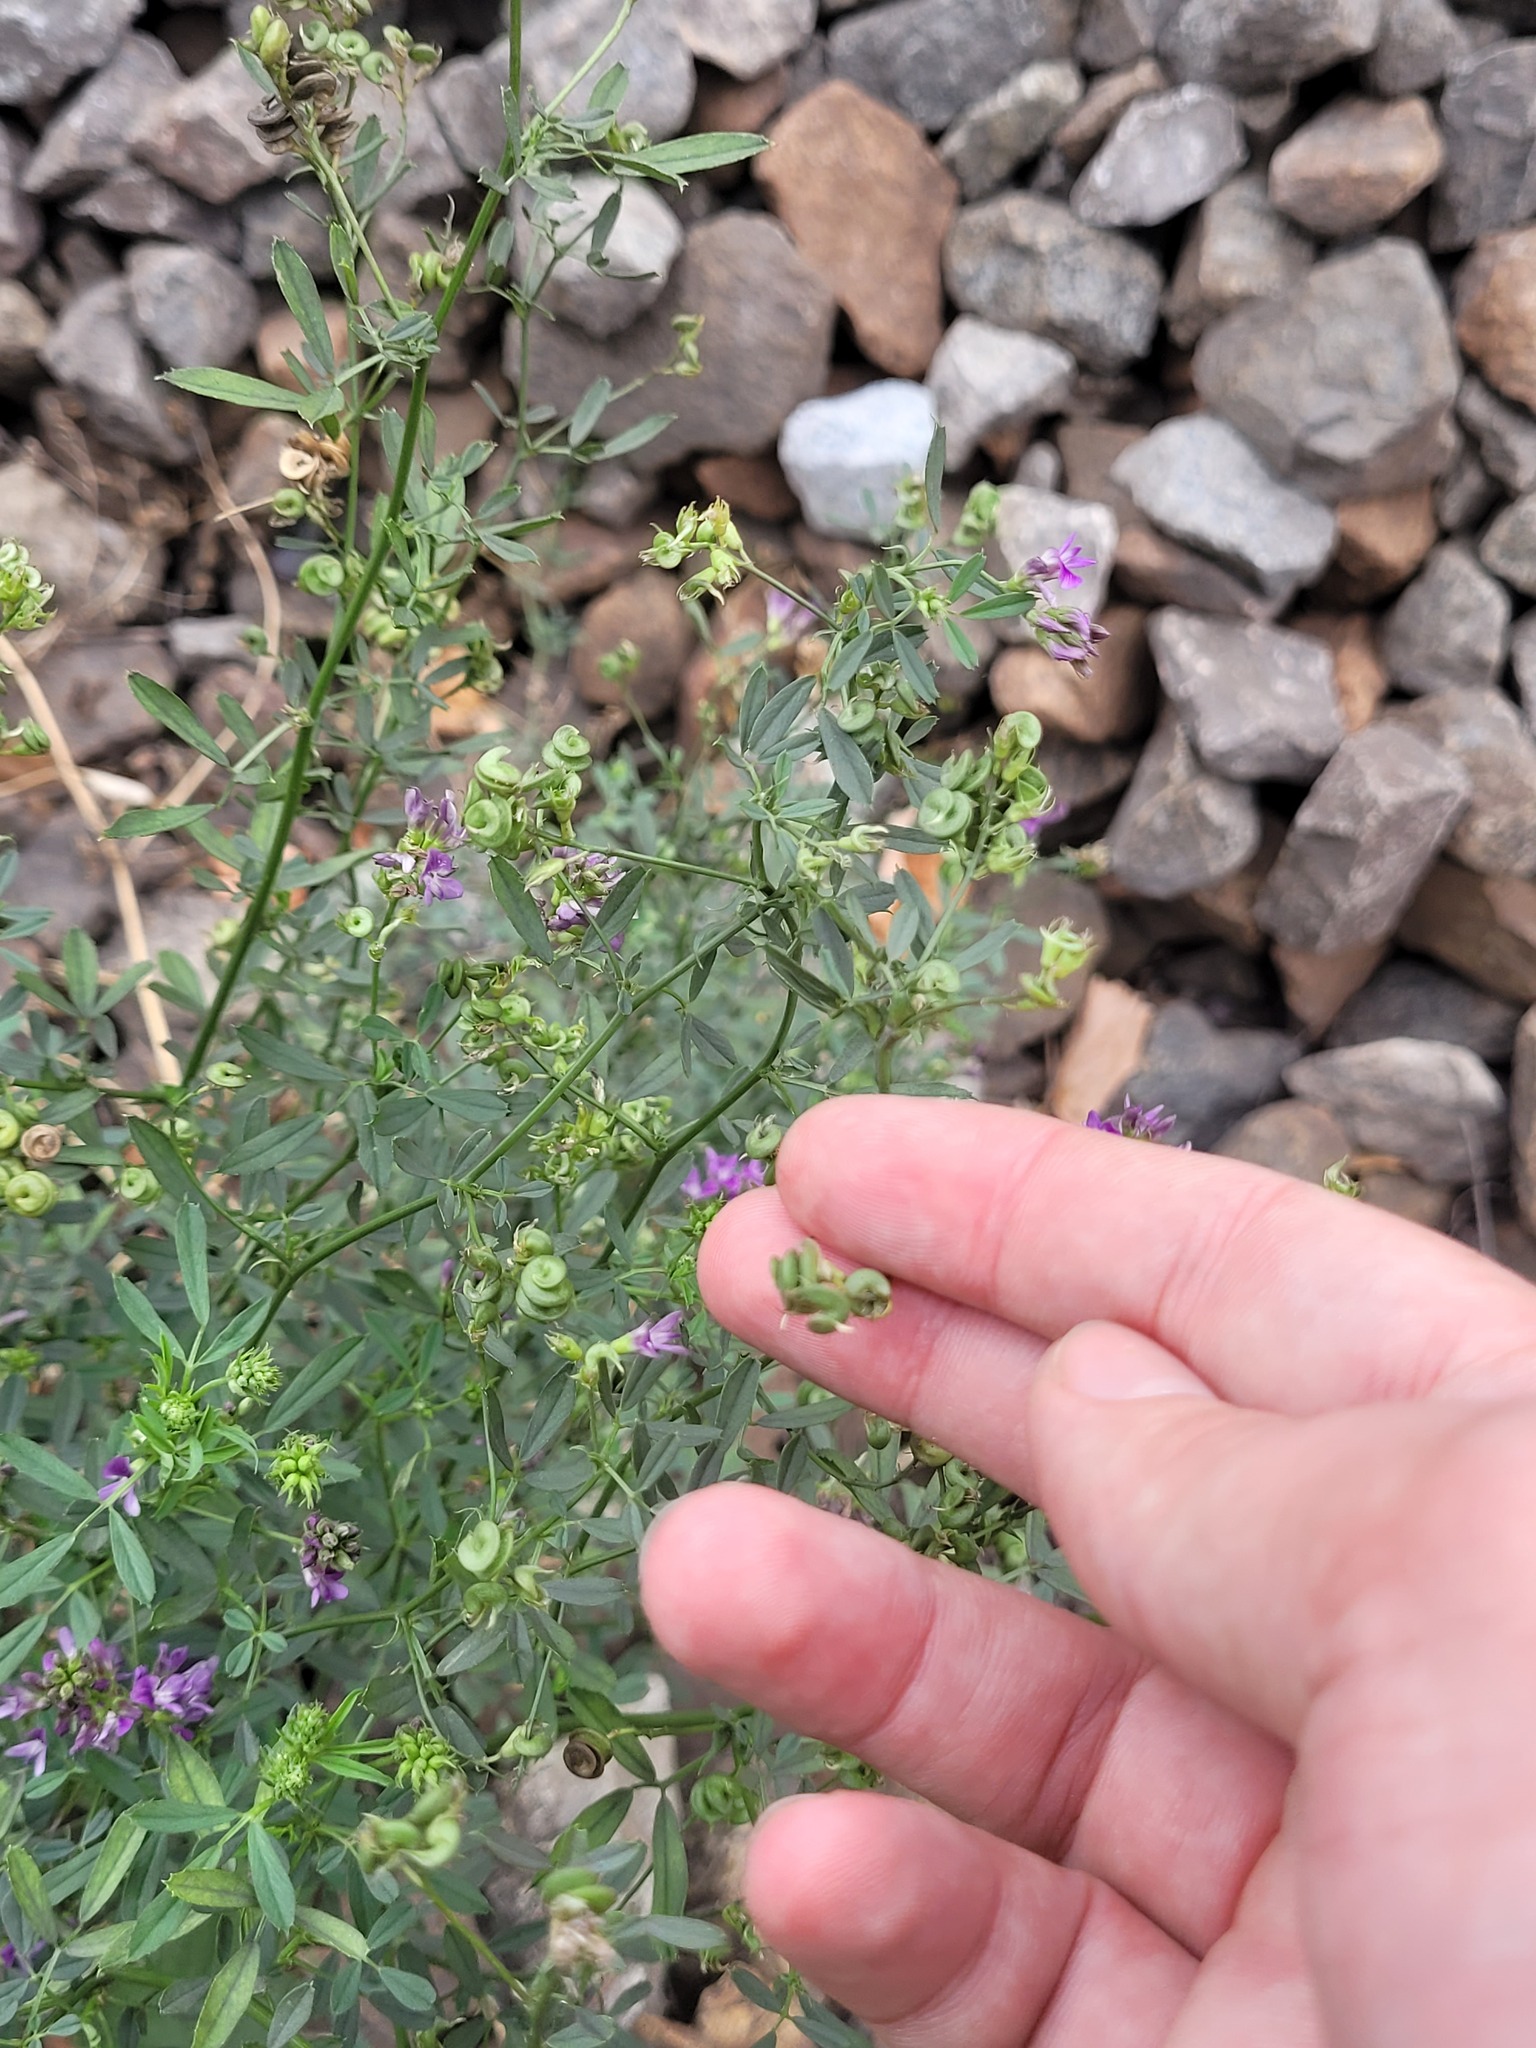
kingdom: Plantae
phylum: Tracheophyta
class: Magnoliopsida
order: Fabales
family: Fabaceae
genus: Medicago
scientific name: Medicago sativa
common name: Alfalfa
